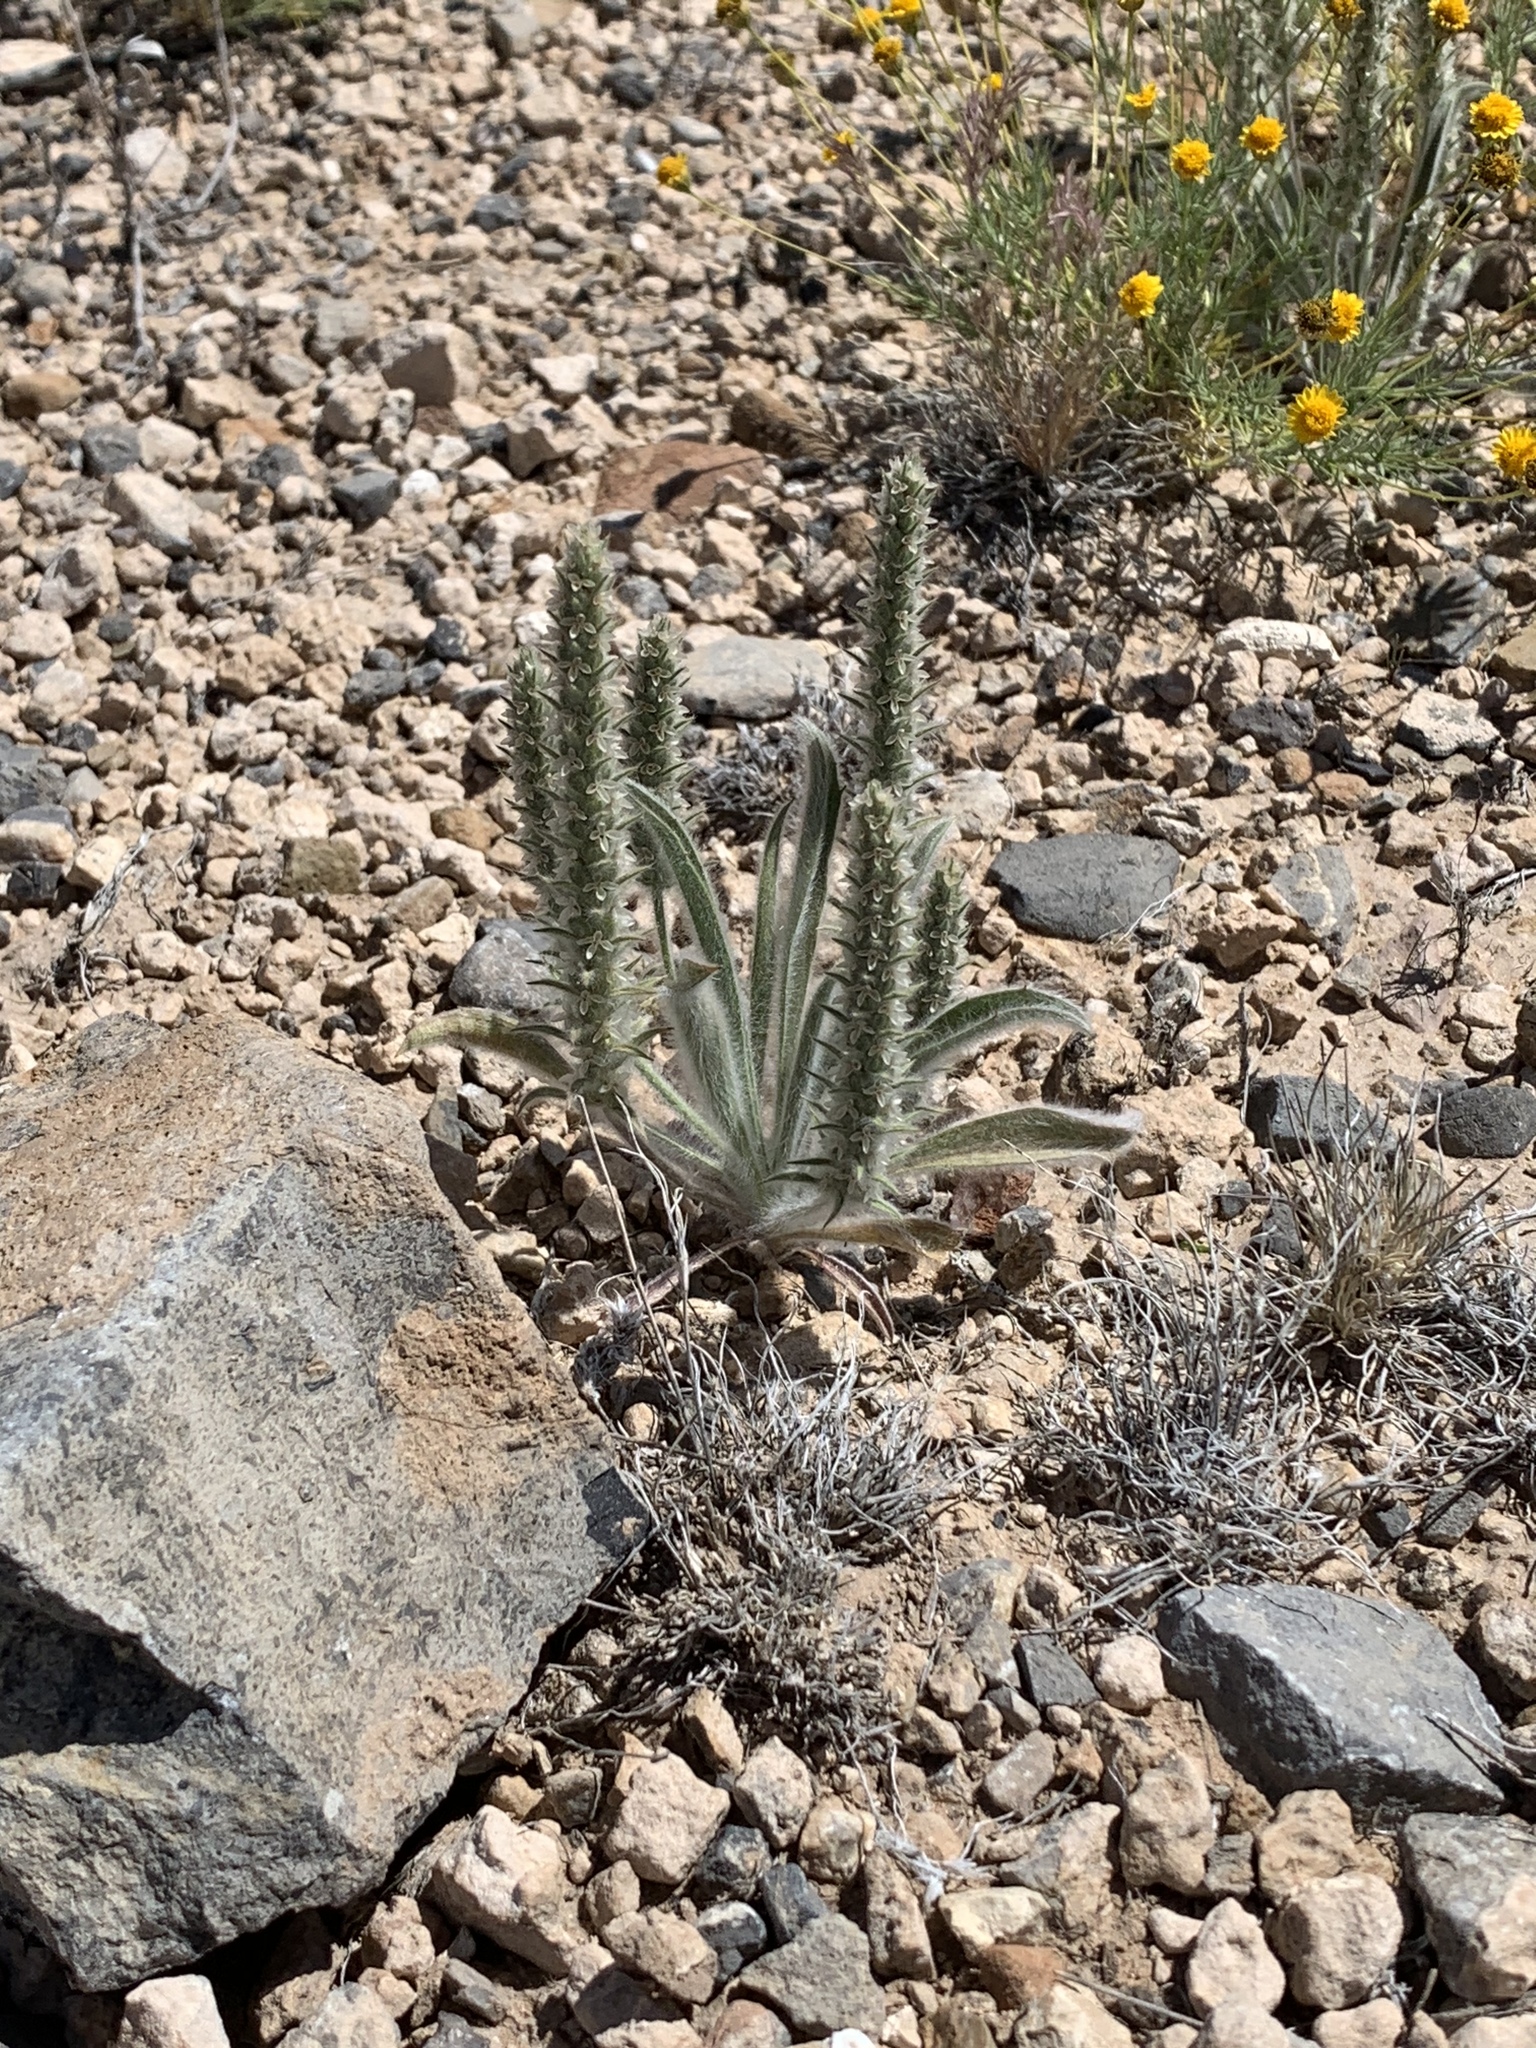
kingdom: Plantae
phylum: Tracheophyta
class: Magnoliopsida
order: Lamiales
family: Plantaginaceae
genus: Plantago
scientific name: Plantago patagonica
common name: Patagonia indian-wheat
